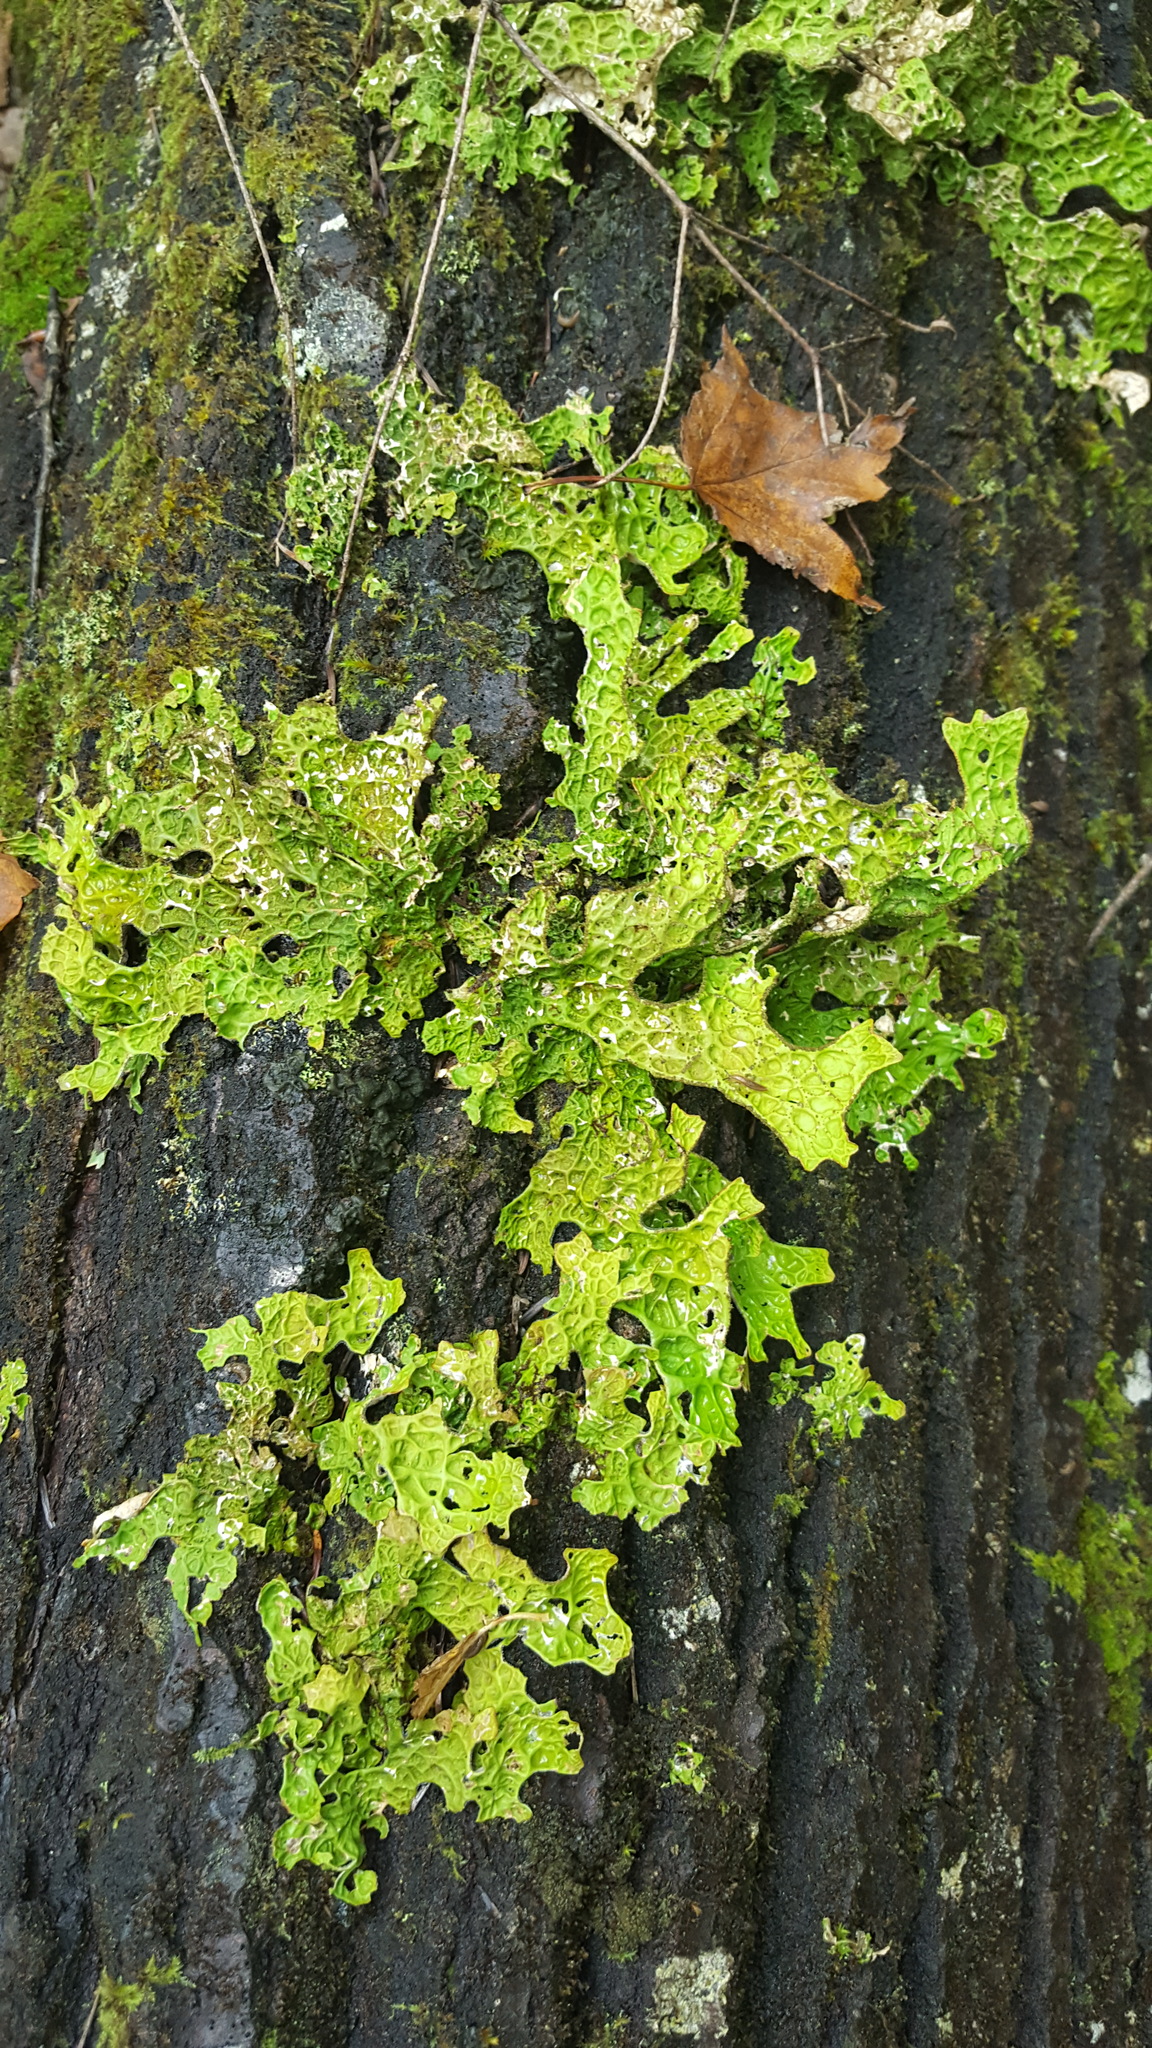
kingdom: Fungi
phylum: Ascomycota
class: Lecanoromycetes
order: Peltigerales
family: Lobariaceae
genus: Lobaria
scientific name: Lobaria pulmonaria
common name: Lungwort
